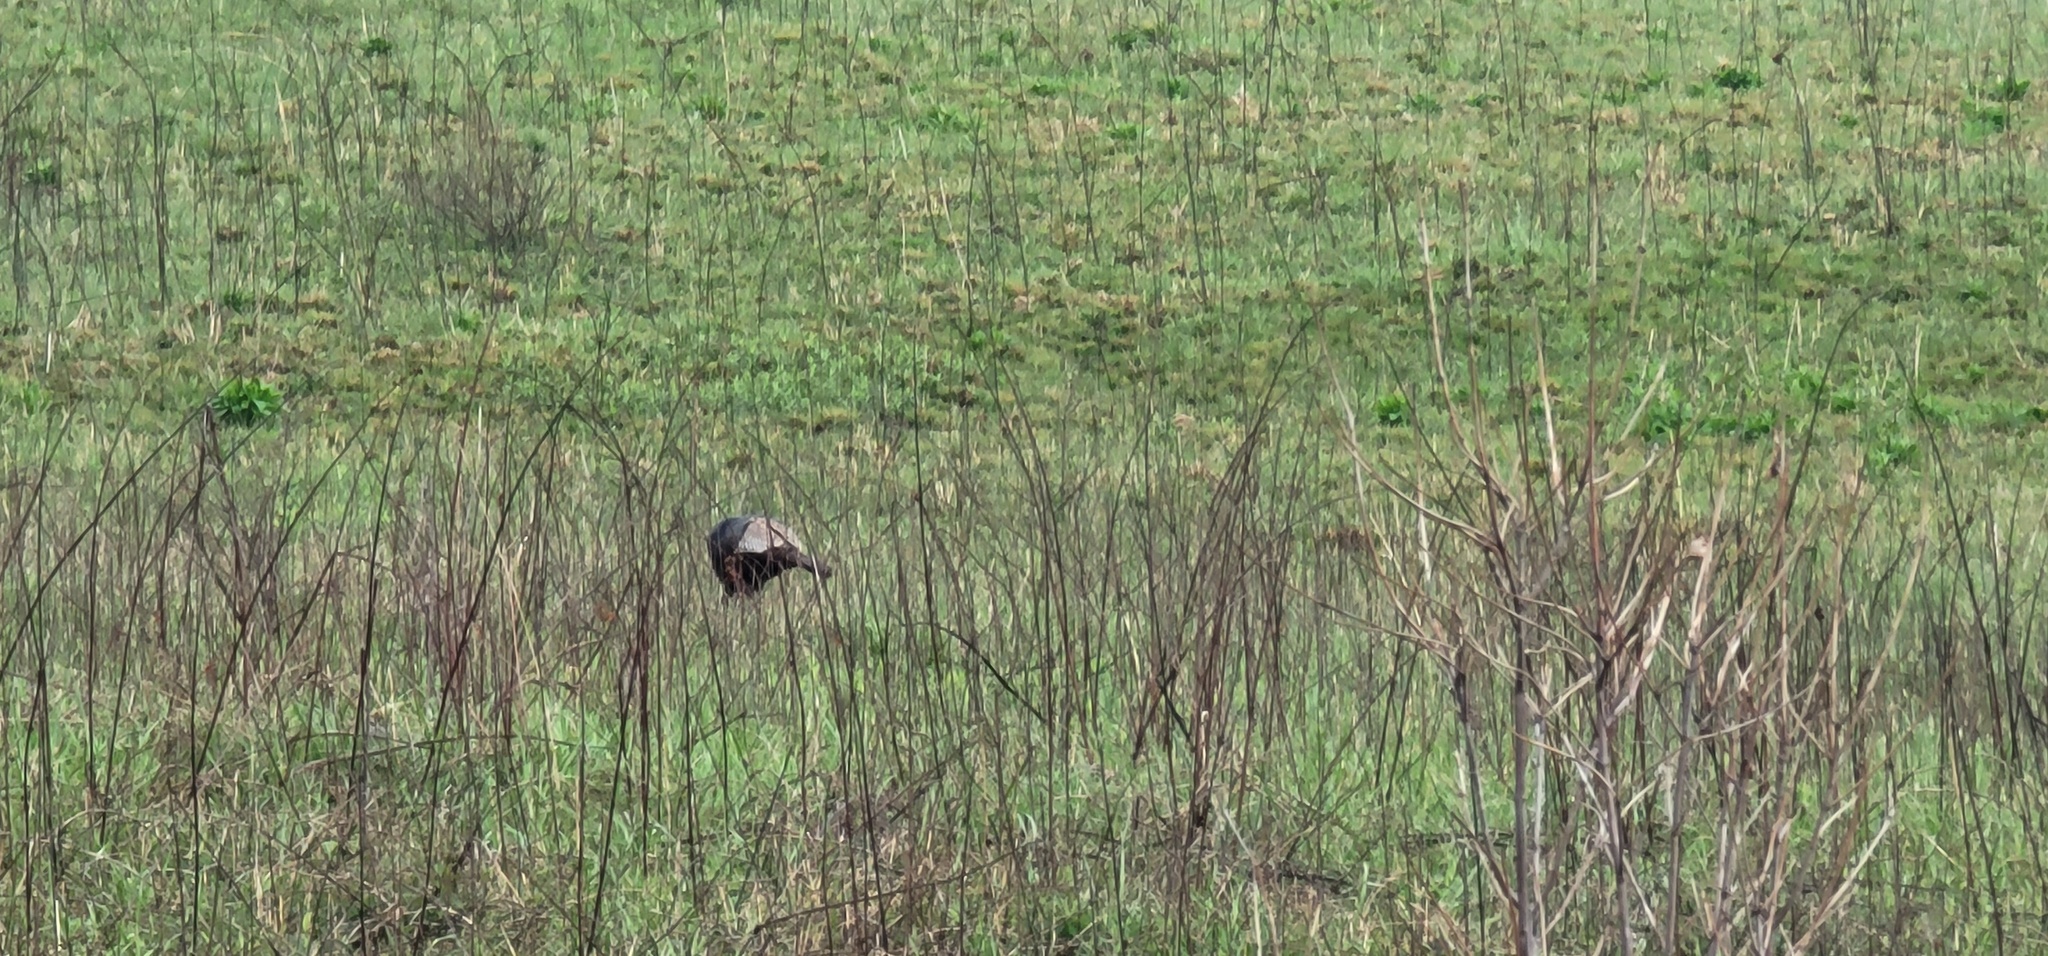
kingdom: Animalia
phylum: Chordata
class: Aves
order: Galliformes
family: Phasianidae
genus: Meleagris
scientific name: Meleagris gallopavo
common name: Wild turkey
